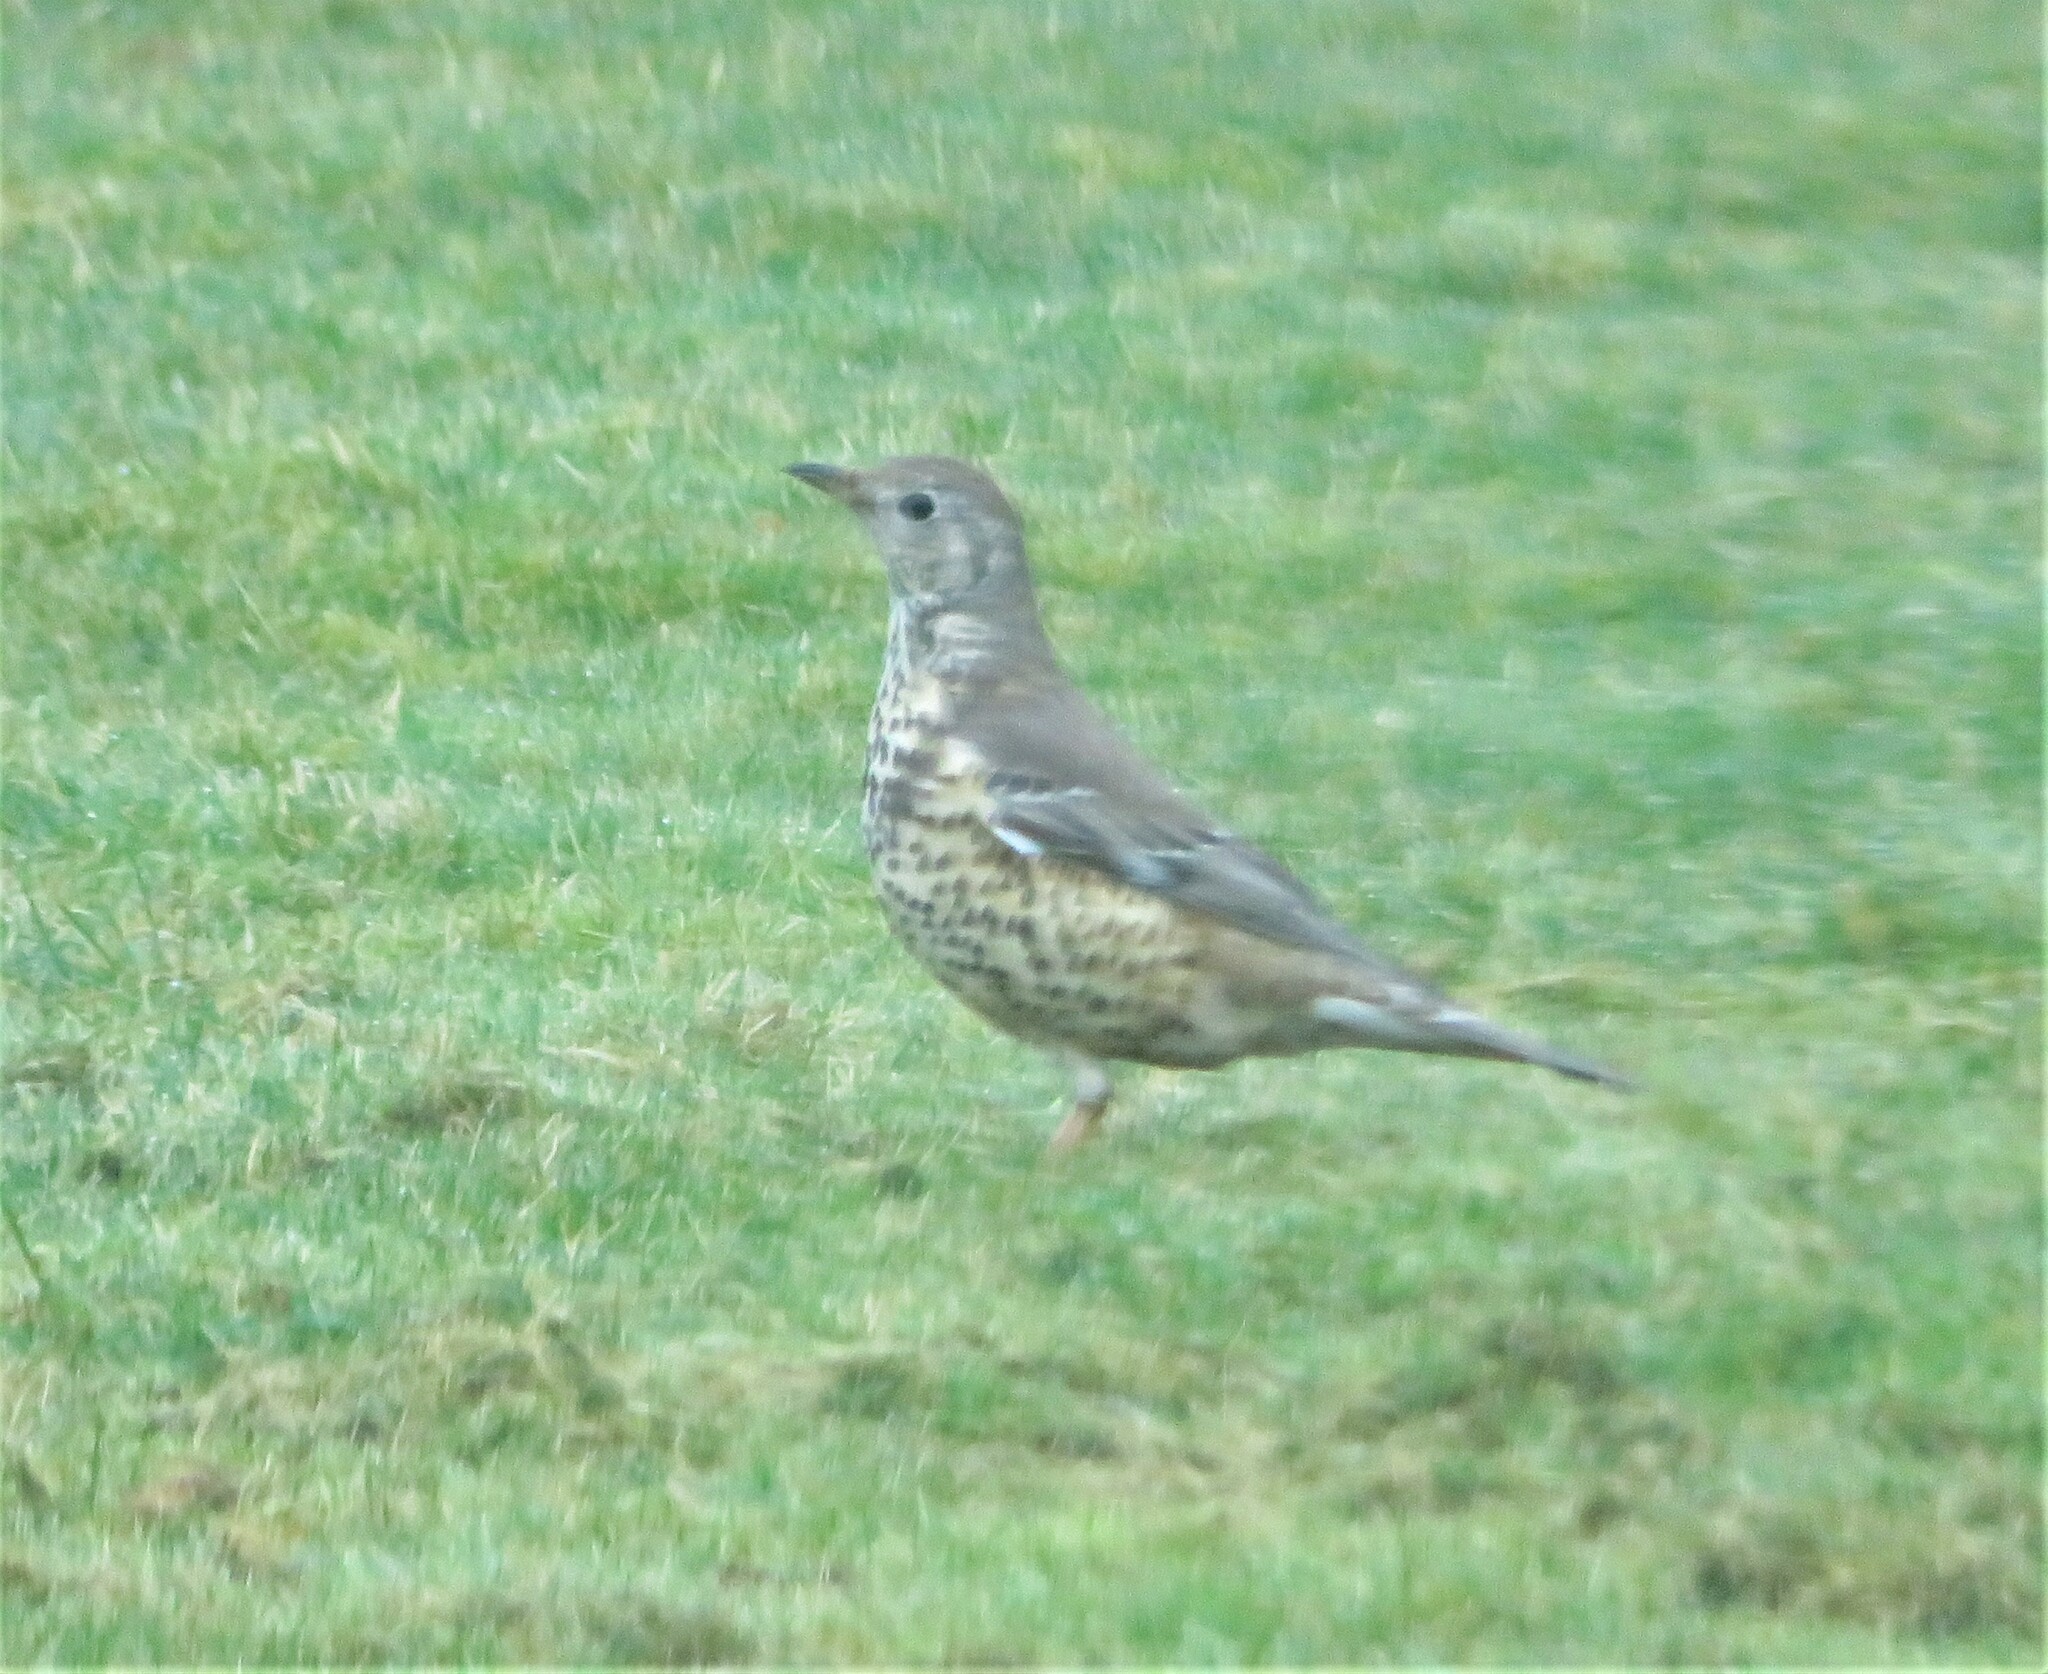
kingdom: Animalia
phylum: Chordata
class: Aves
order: Passeriformes
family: Turdidae
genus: Turdus
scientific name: Turdus viscivorus
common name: Mistle thrush
